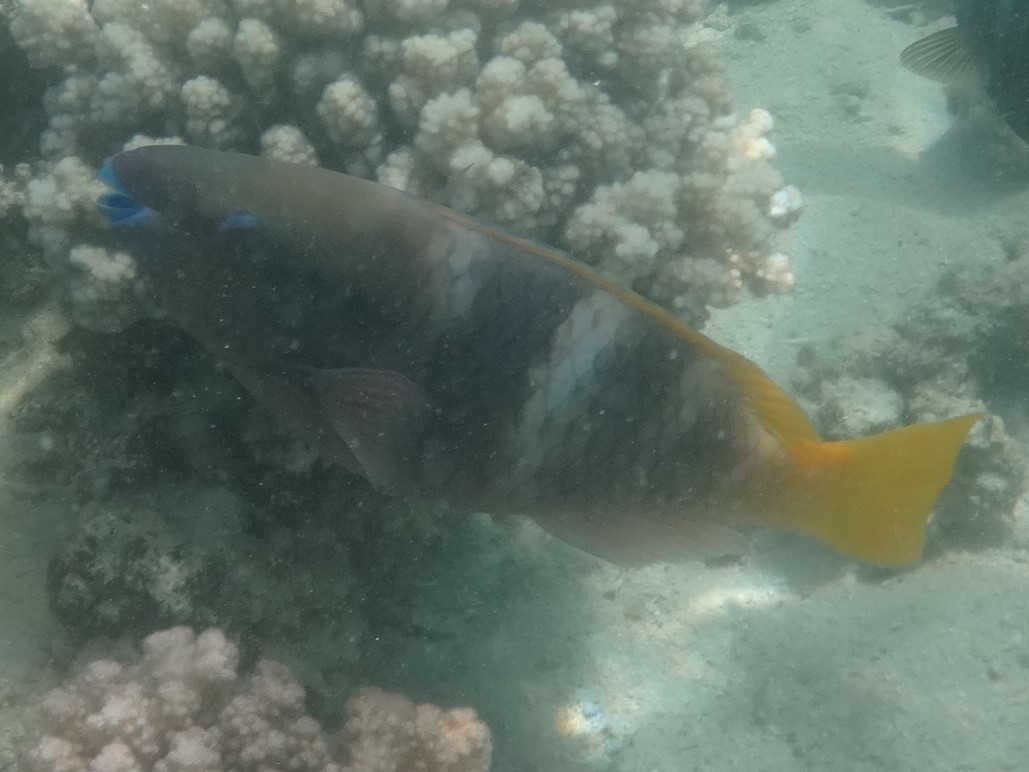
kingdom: Animalia
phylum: Chordata
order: Perciformes
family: Scaridae
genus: Scarus
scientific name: Scarus ferrugineus
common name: Rusty parrotfish
